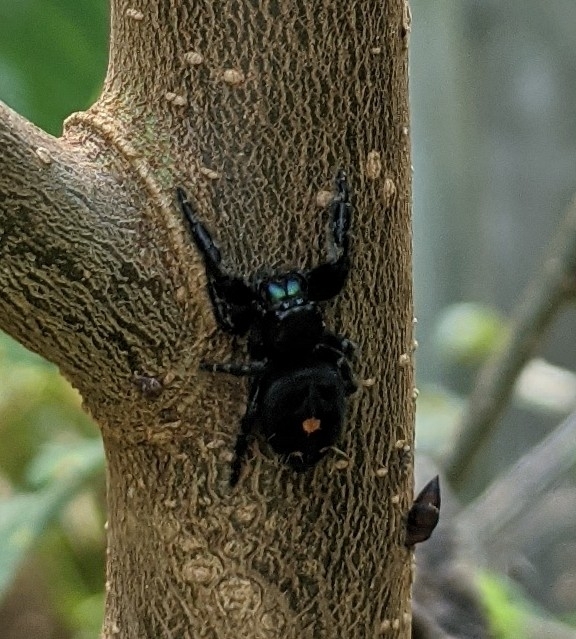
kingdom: Animalia
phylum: Arthropoda
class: Arachnida
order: Araneae
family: Salticidae
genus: Phidippus
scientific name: Phidippus audax
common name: Bold jumper
